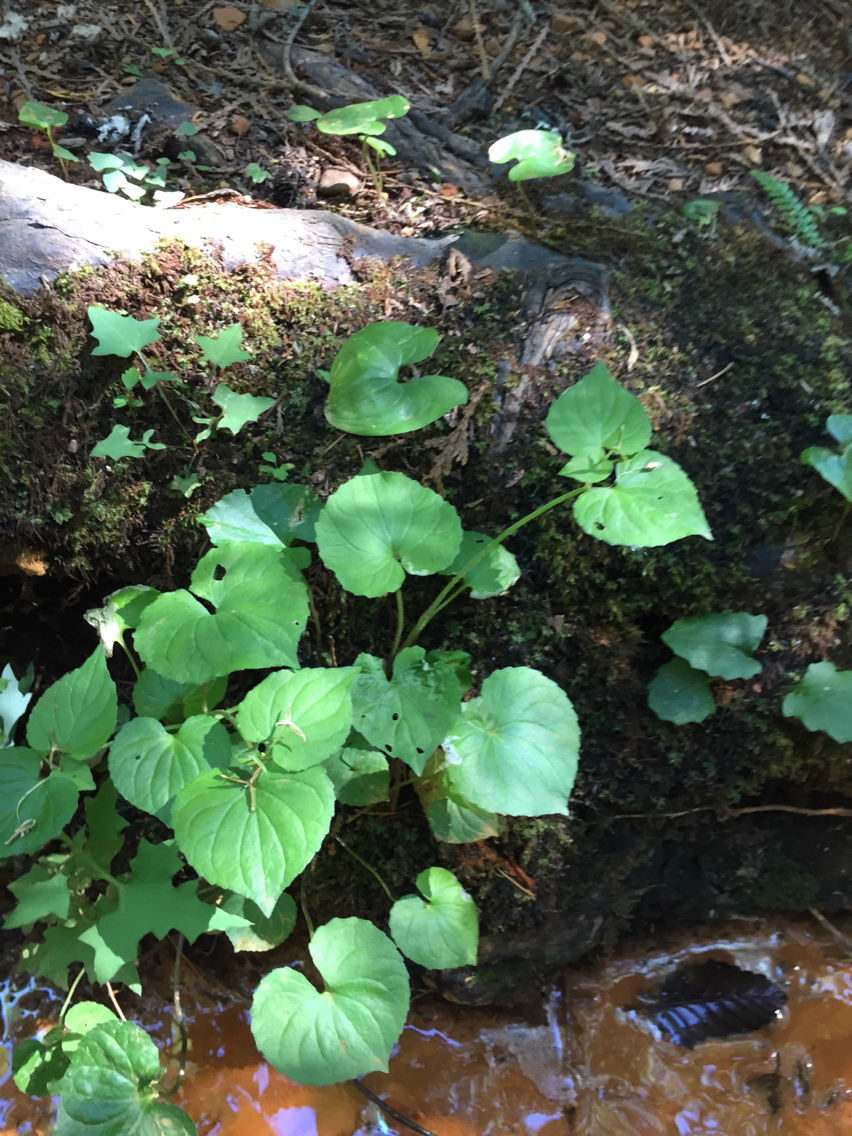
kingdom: Plantae
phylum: Tracheophyta
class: Magnoliopsida
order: Malpighiales
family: Violaceae
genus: Viola
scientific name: Viola glabella
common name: Stream violet
